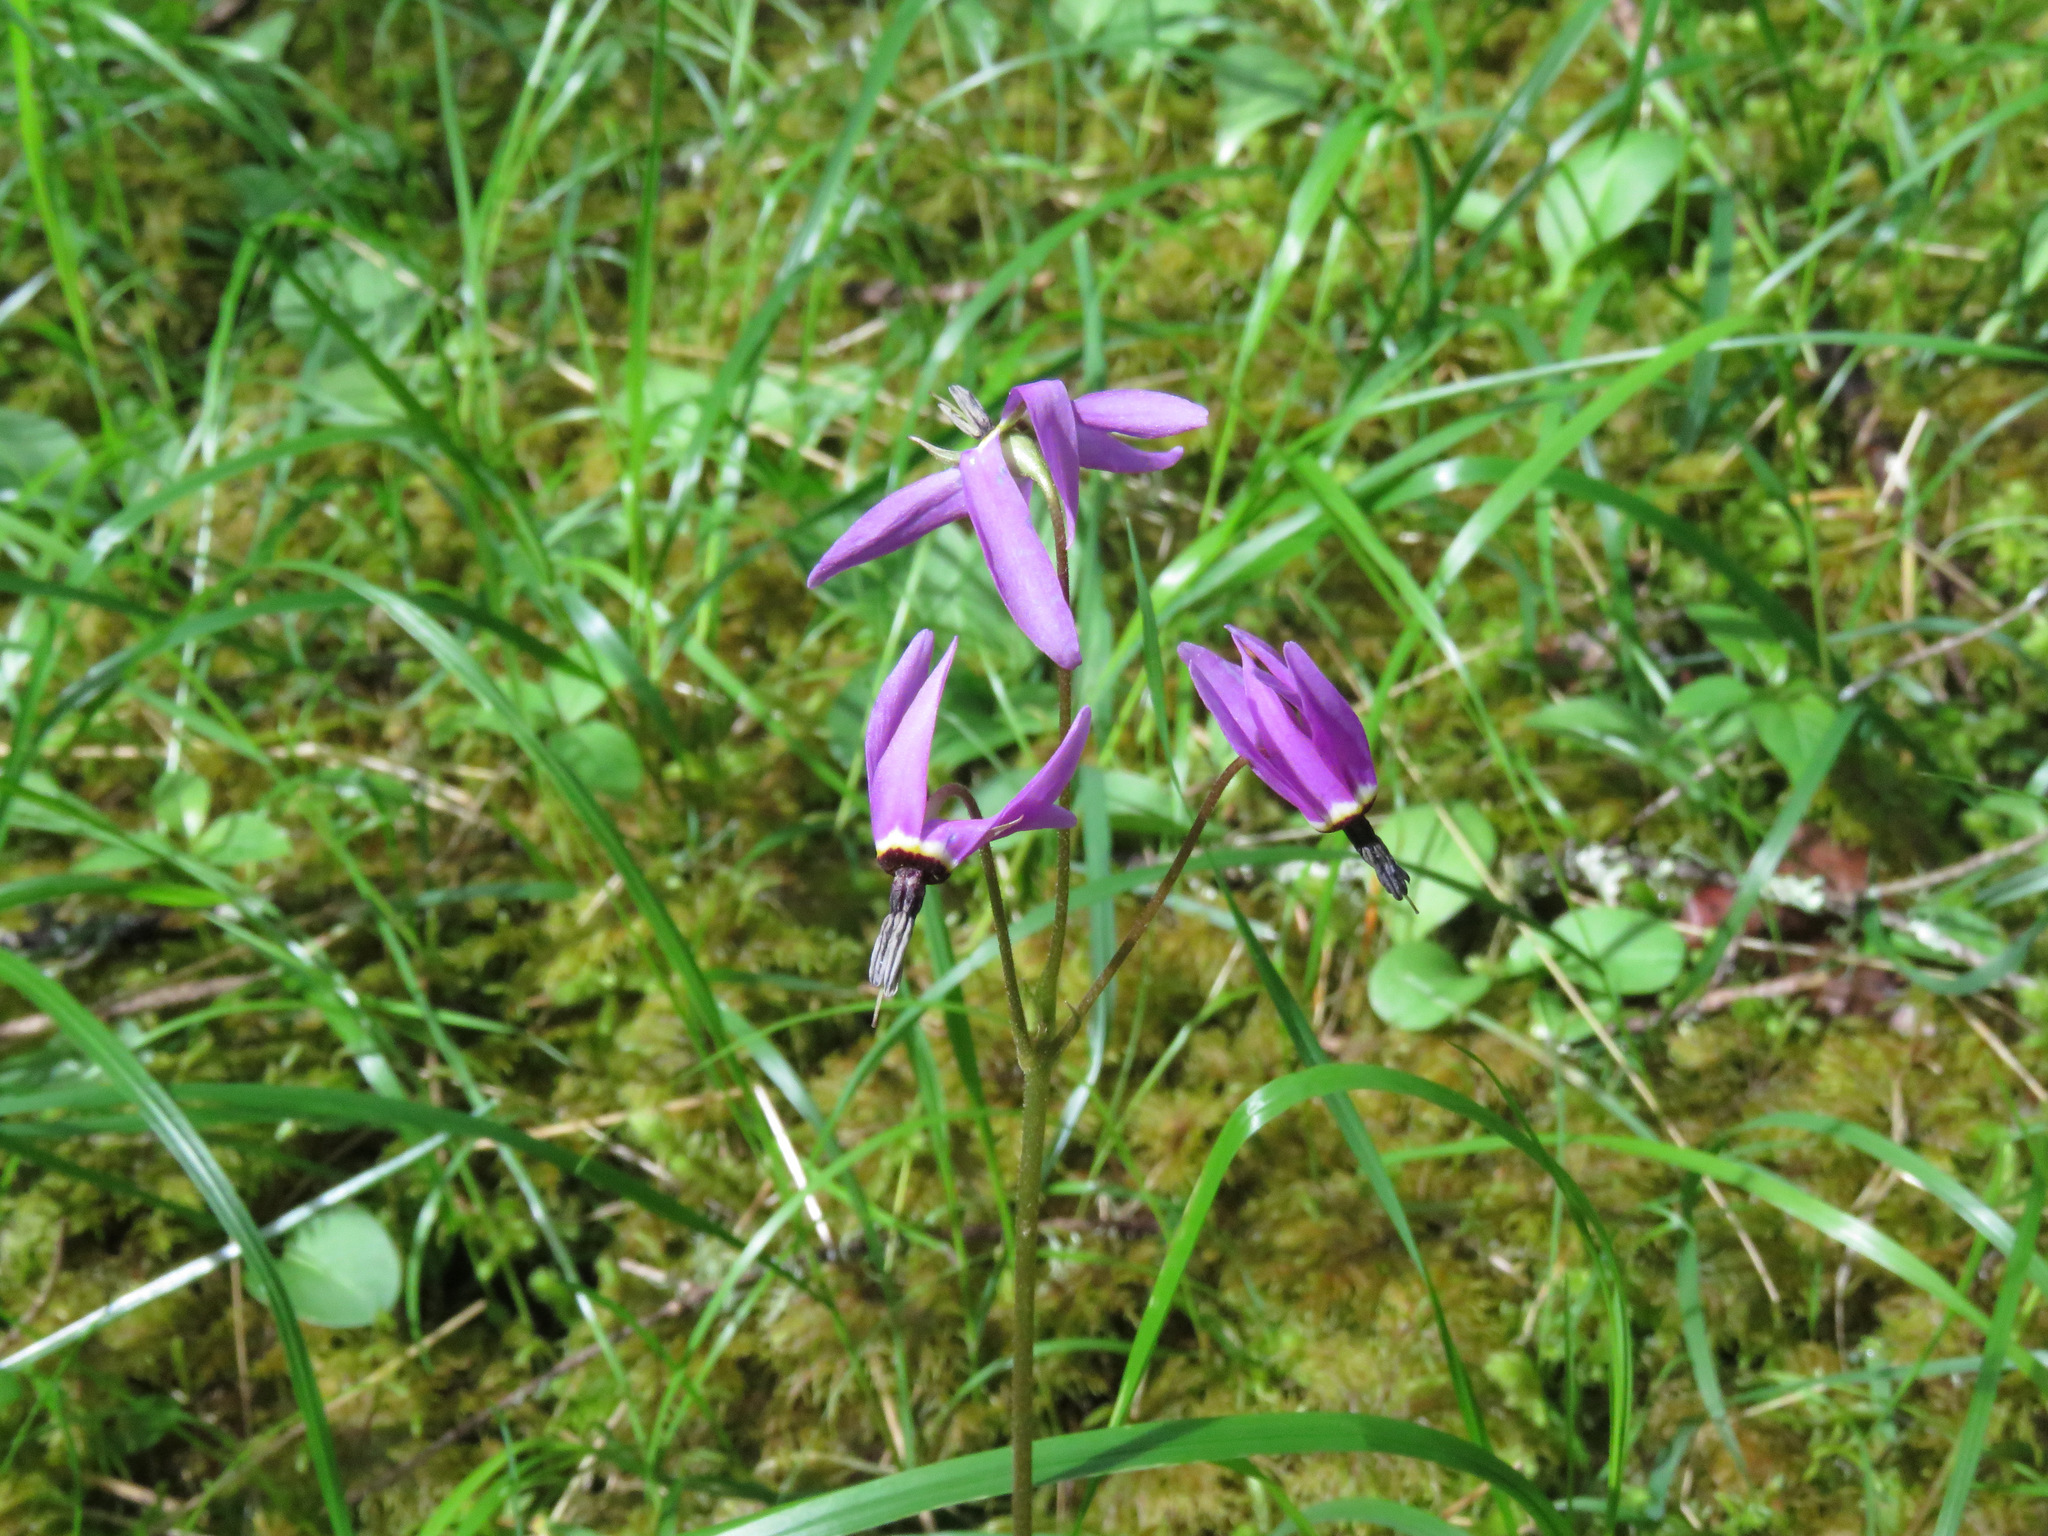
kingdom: Plantae
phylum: Tracheophyta
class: Magnoliopsida
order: Ericales
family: Primulaceae
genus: Dodecatheon
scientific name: Dodecatheon hendersonii
